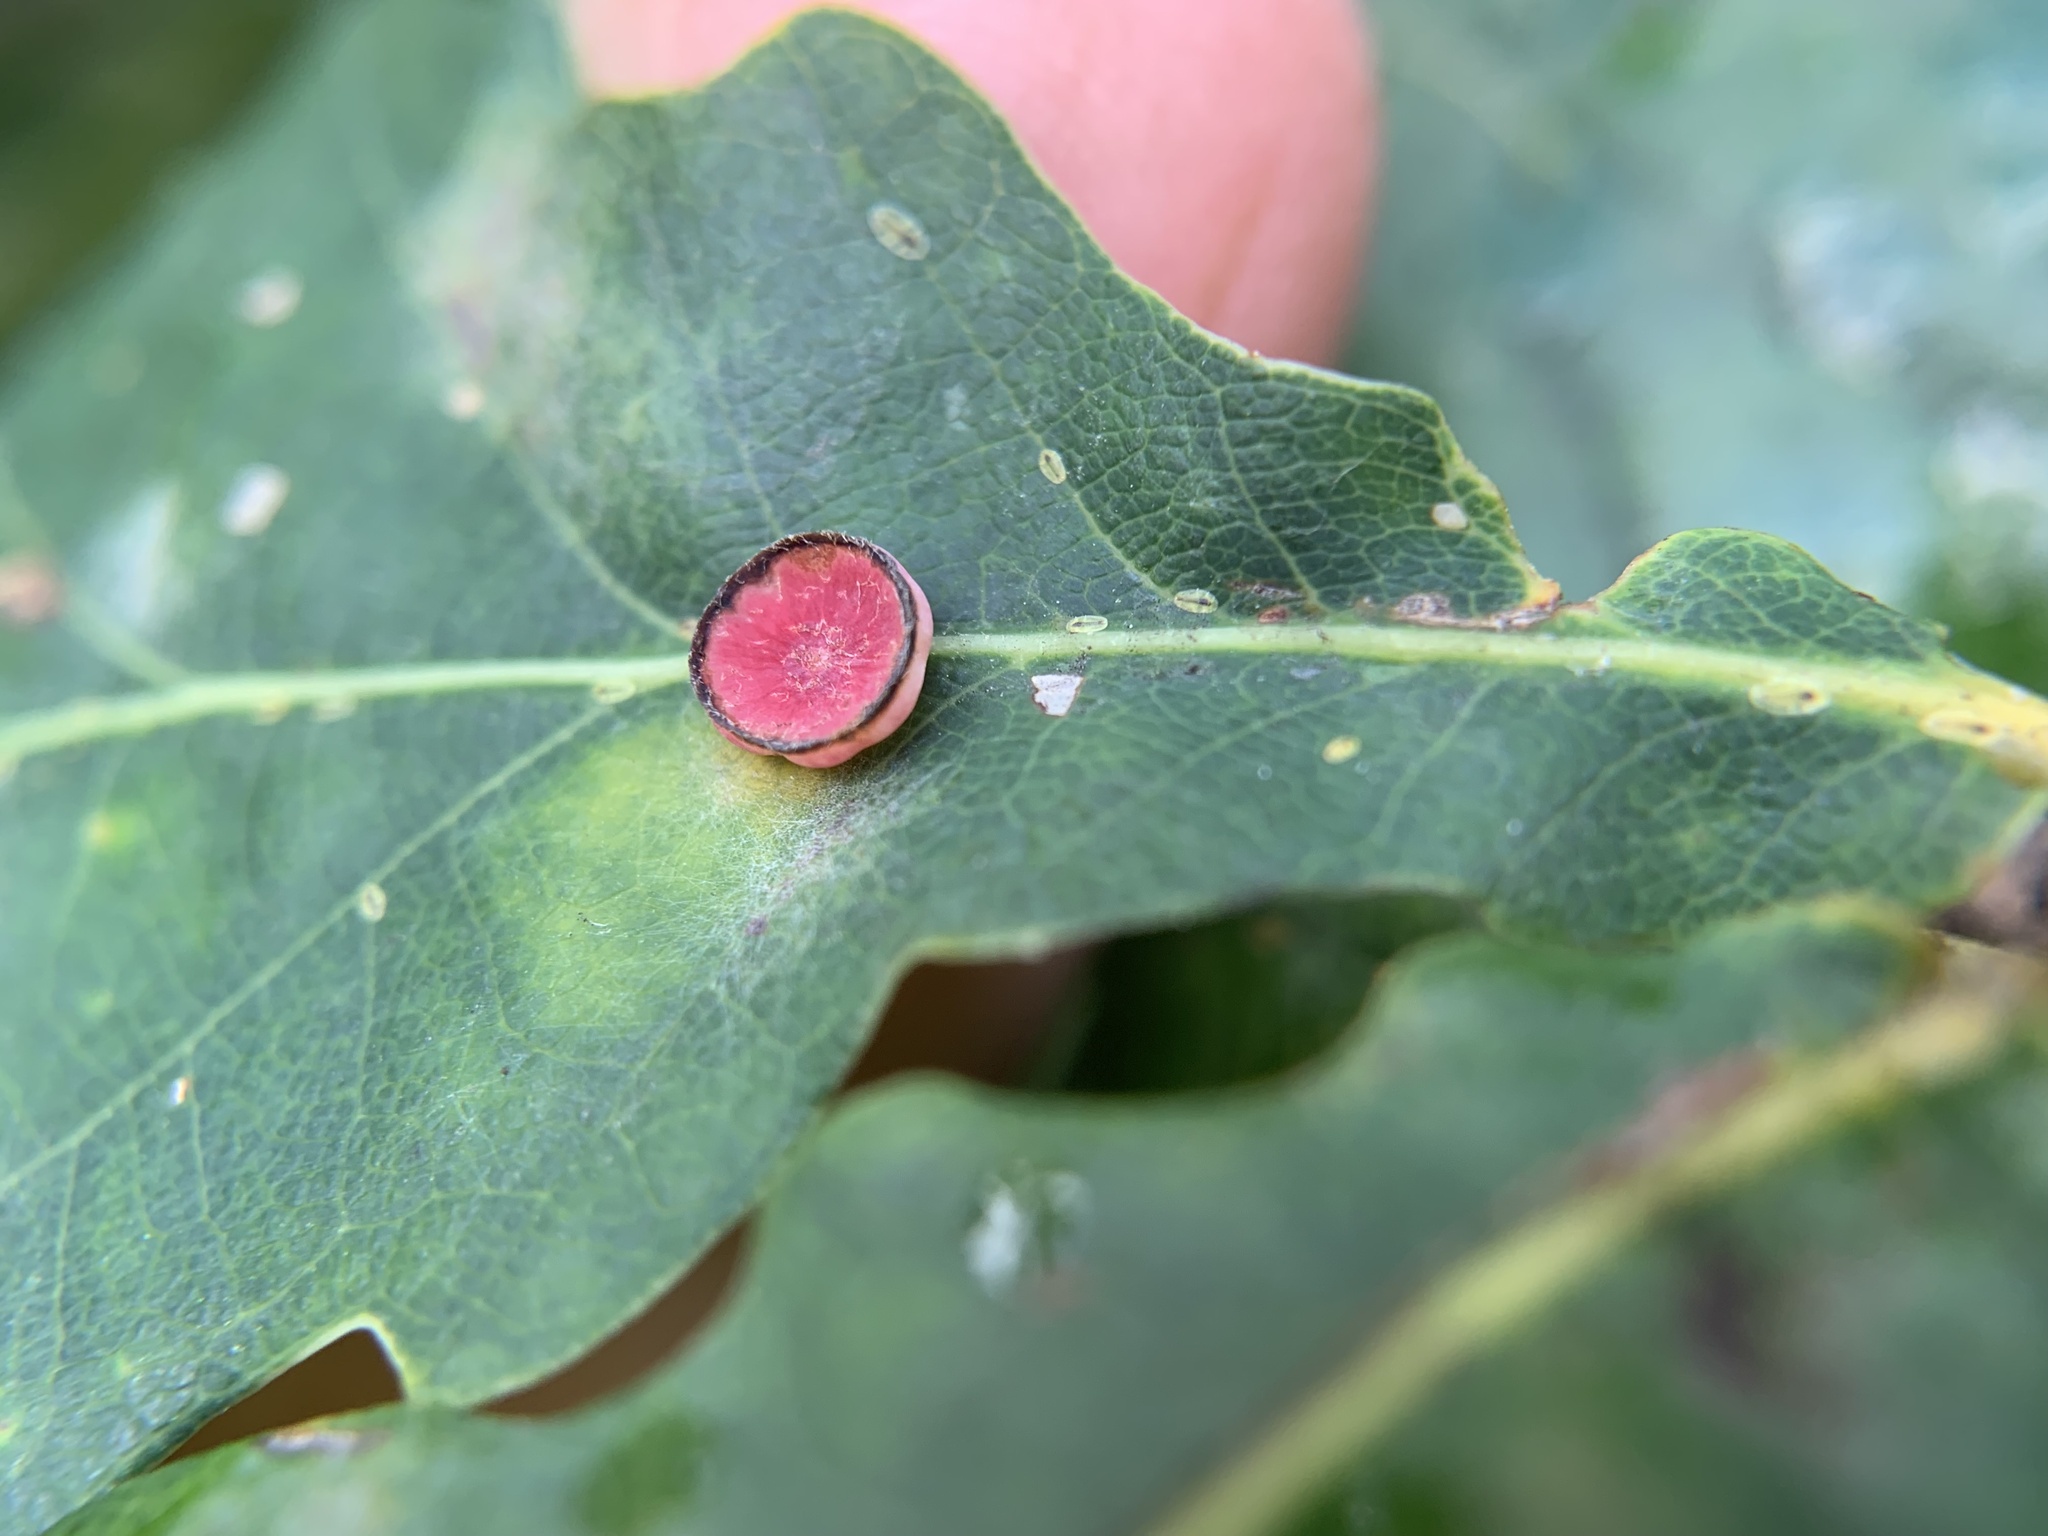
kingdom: Animalia
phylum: Arthropoda
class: Insecta
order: Hymenoptera
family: Cynipidae
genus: Neuroterus
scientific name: Neuroterus albipes
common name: Smooth spangle gall
